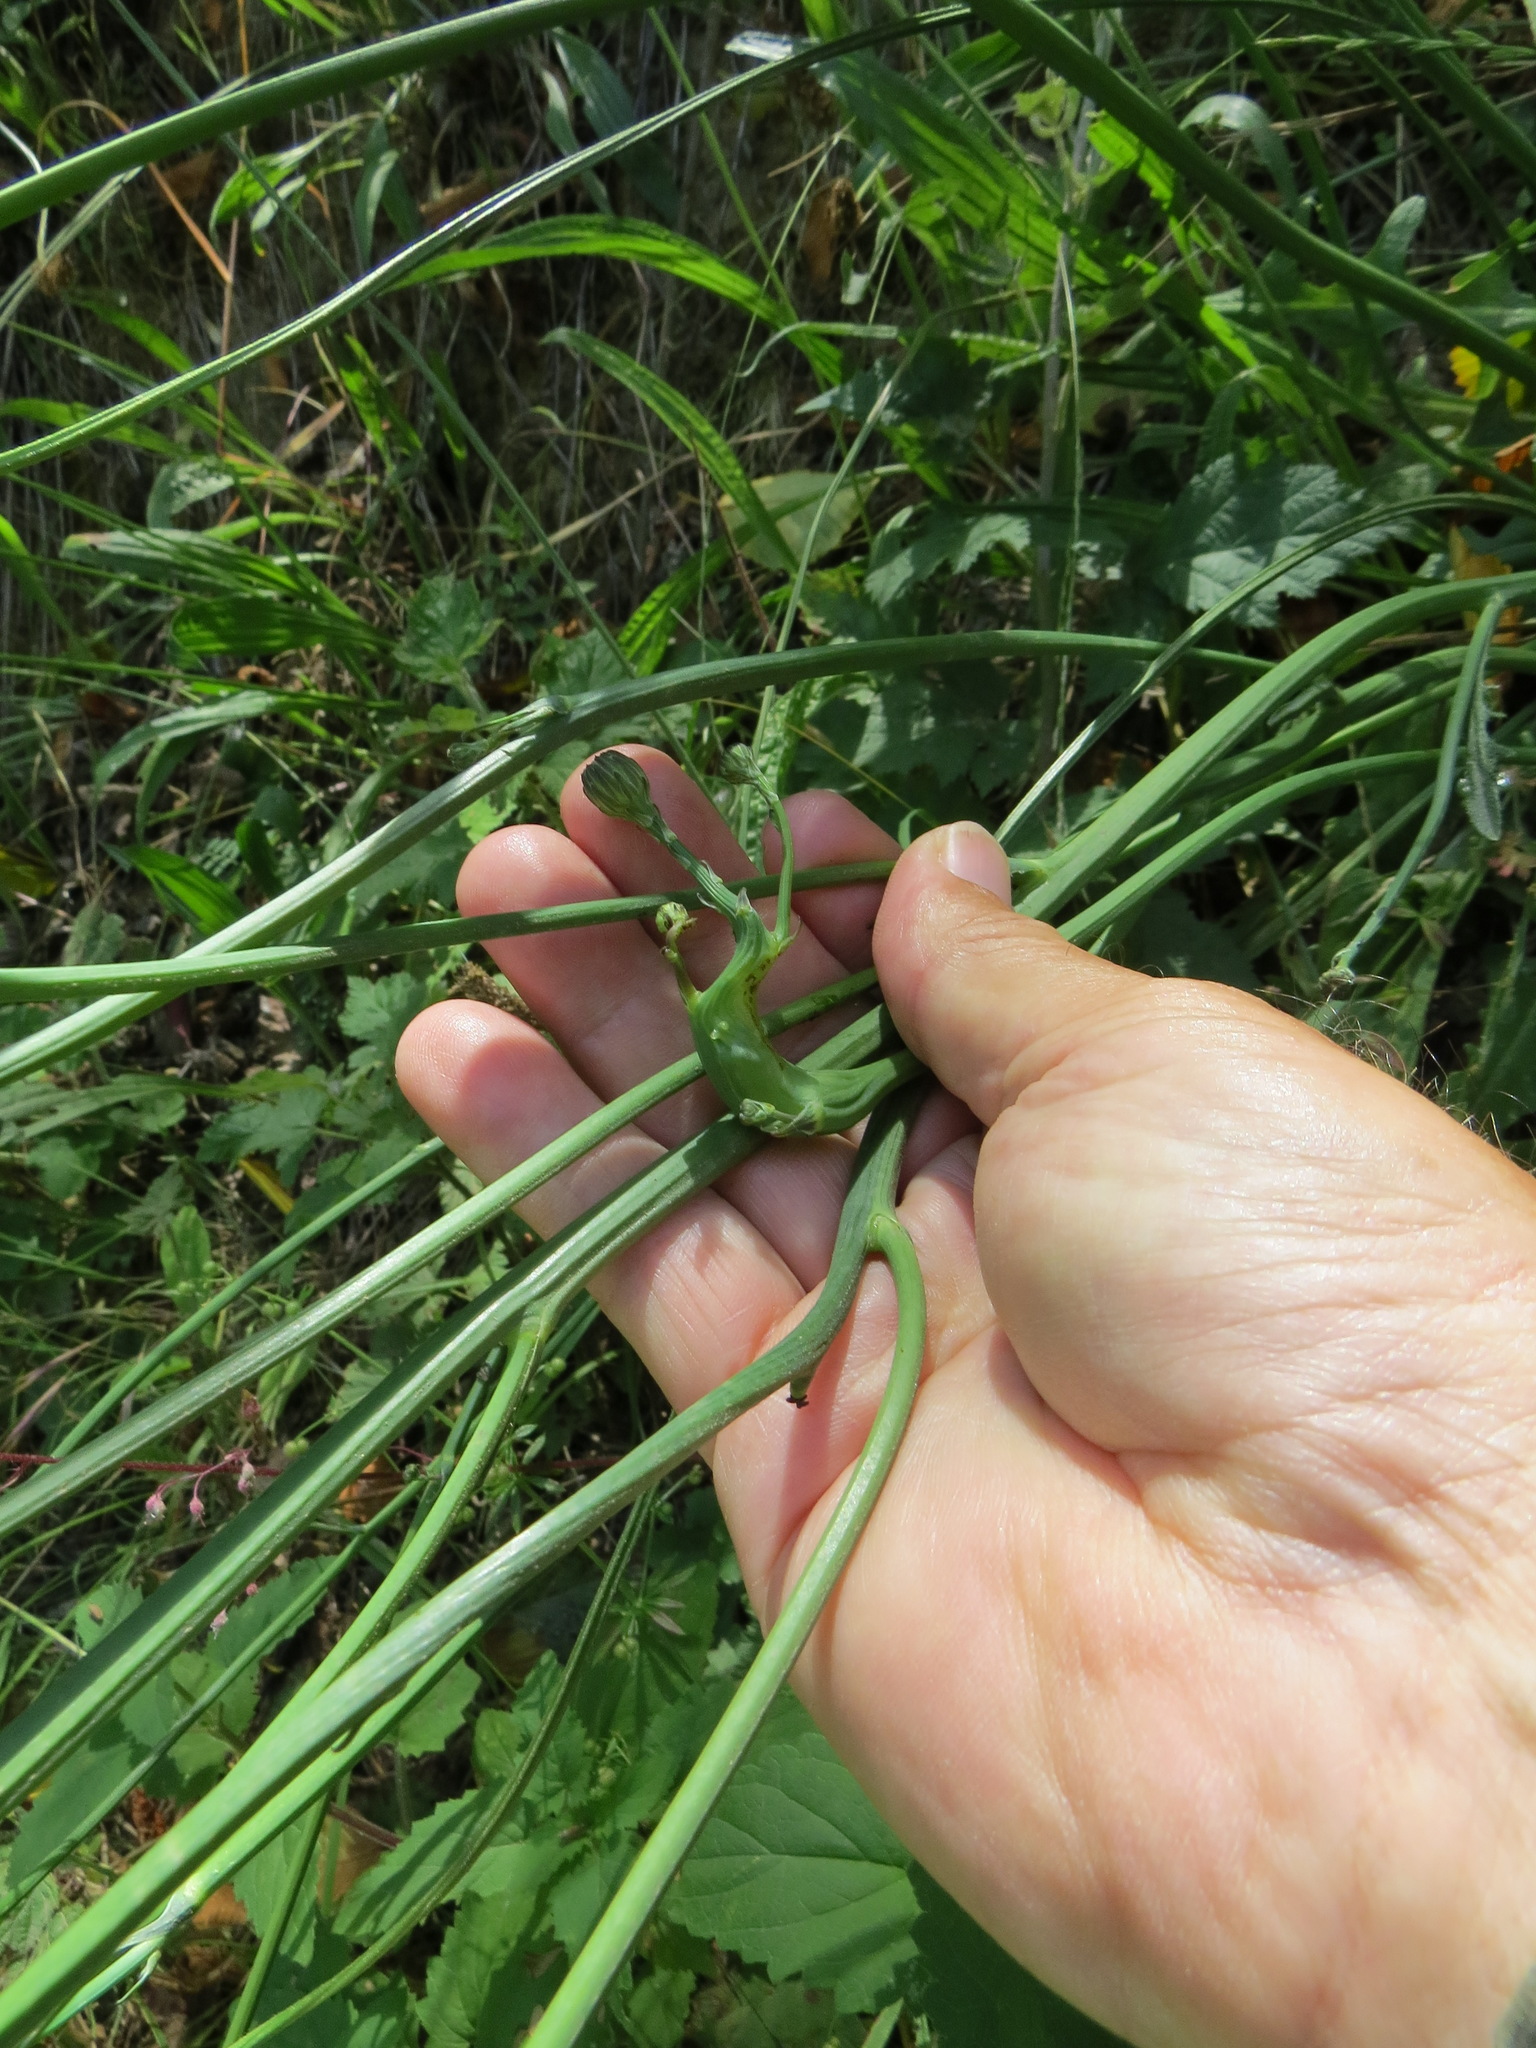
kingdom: Animalia
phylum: Arthropoda
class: Insecta
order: Hymenoptera
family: Cynipidae
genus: Phanacis
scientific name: Phanacis hypochoeridis
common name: Gall wasp
